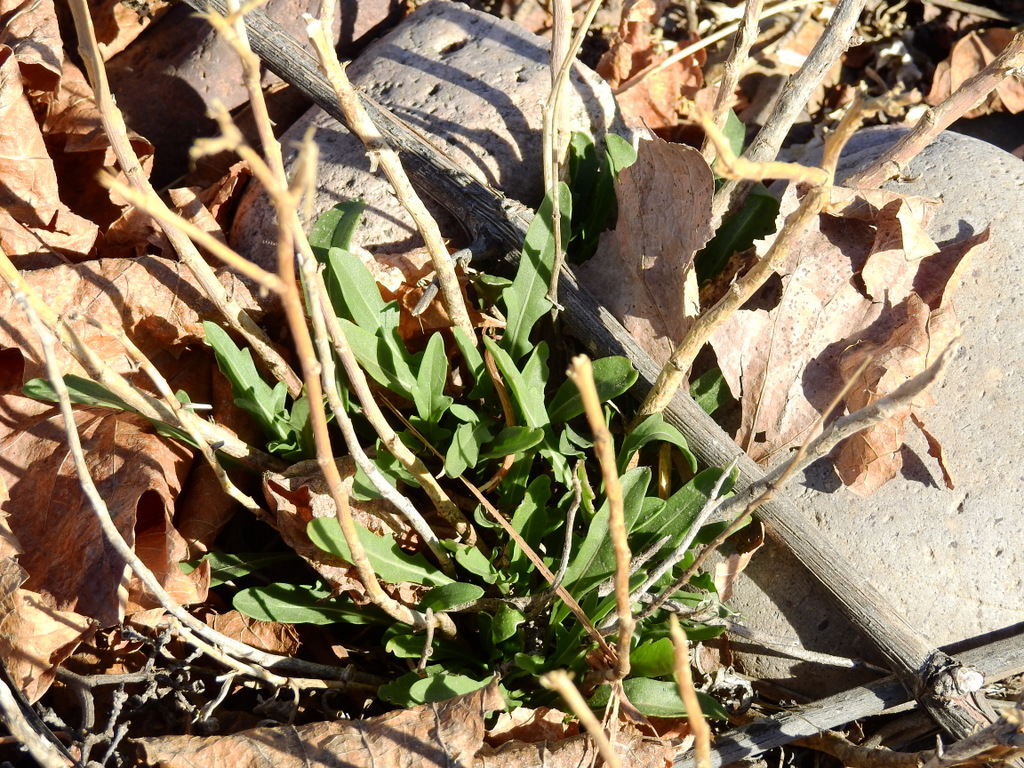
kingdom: Plantae
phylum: Tracheophyta
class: Magnoliopsida
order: Brassicales
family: Brassicaceae
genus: Diplotaxis
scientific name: Diplotaxis tenuifolia
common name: Perennial wall-rocket
